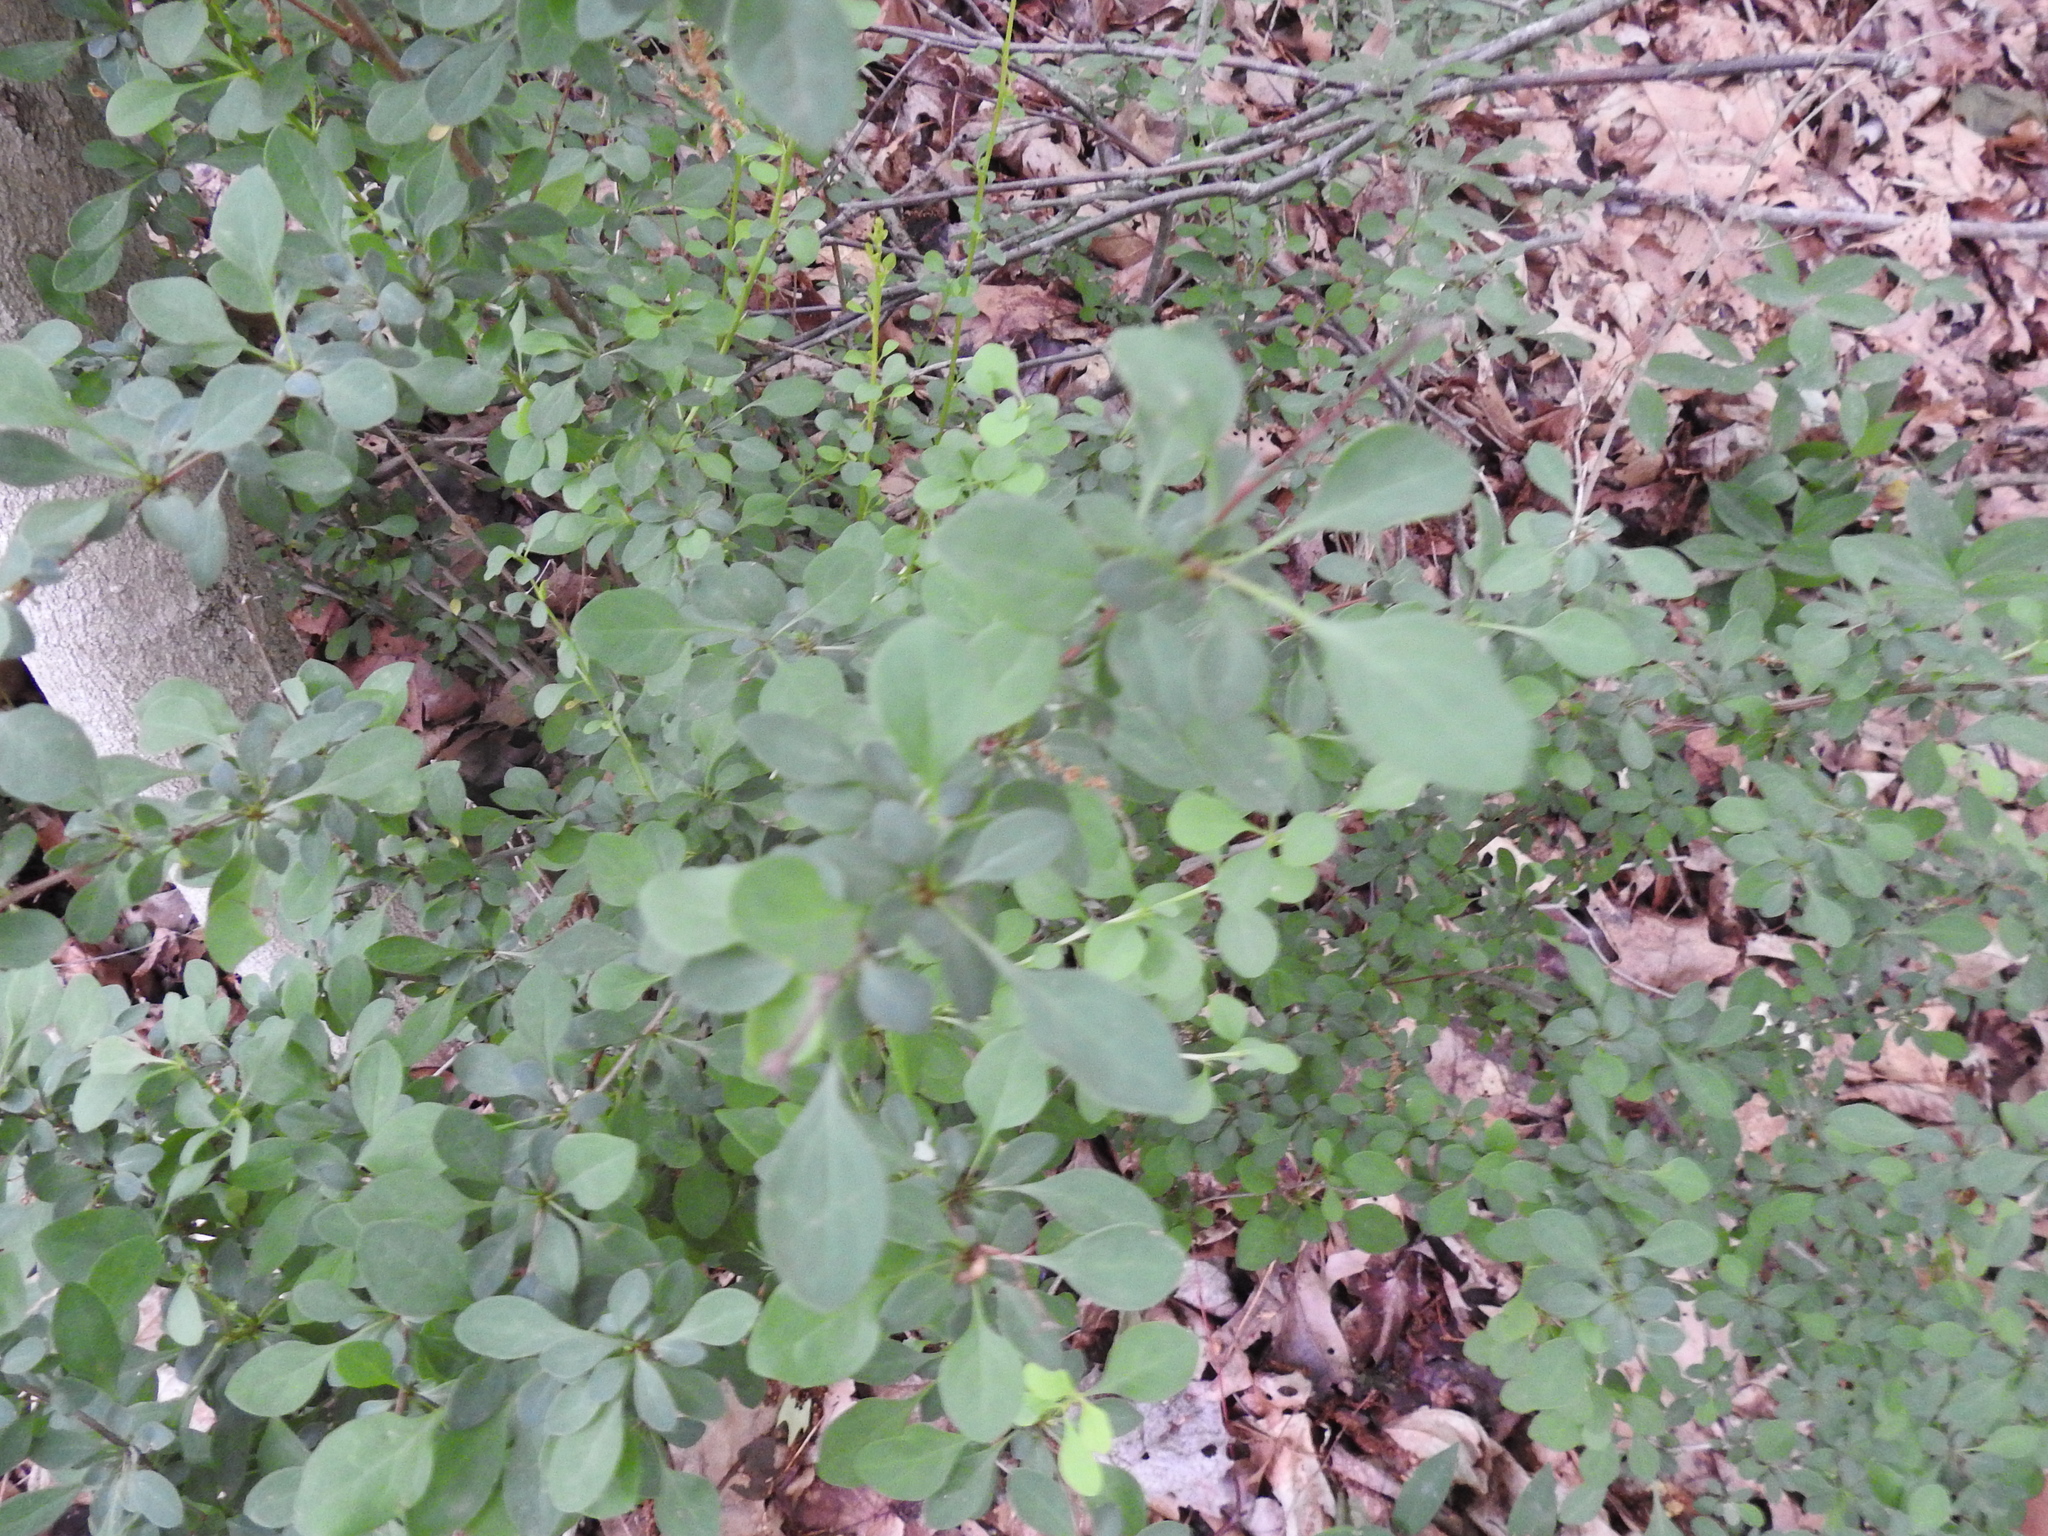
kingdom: Plantae
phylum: Tracheophyta
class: Magnoliopsida
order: Ranunculales
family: Berberidaceae
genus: Berberis
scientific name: Berberis thunbergii
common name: Japanese barberry
